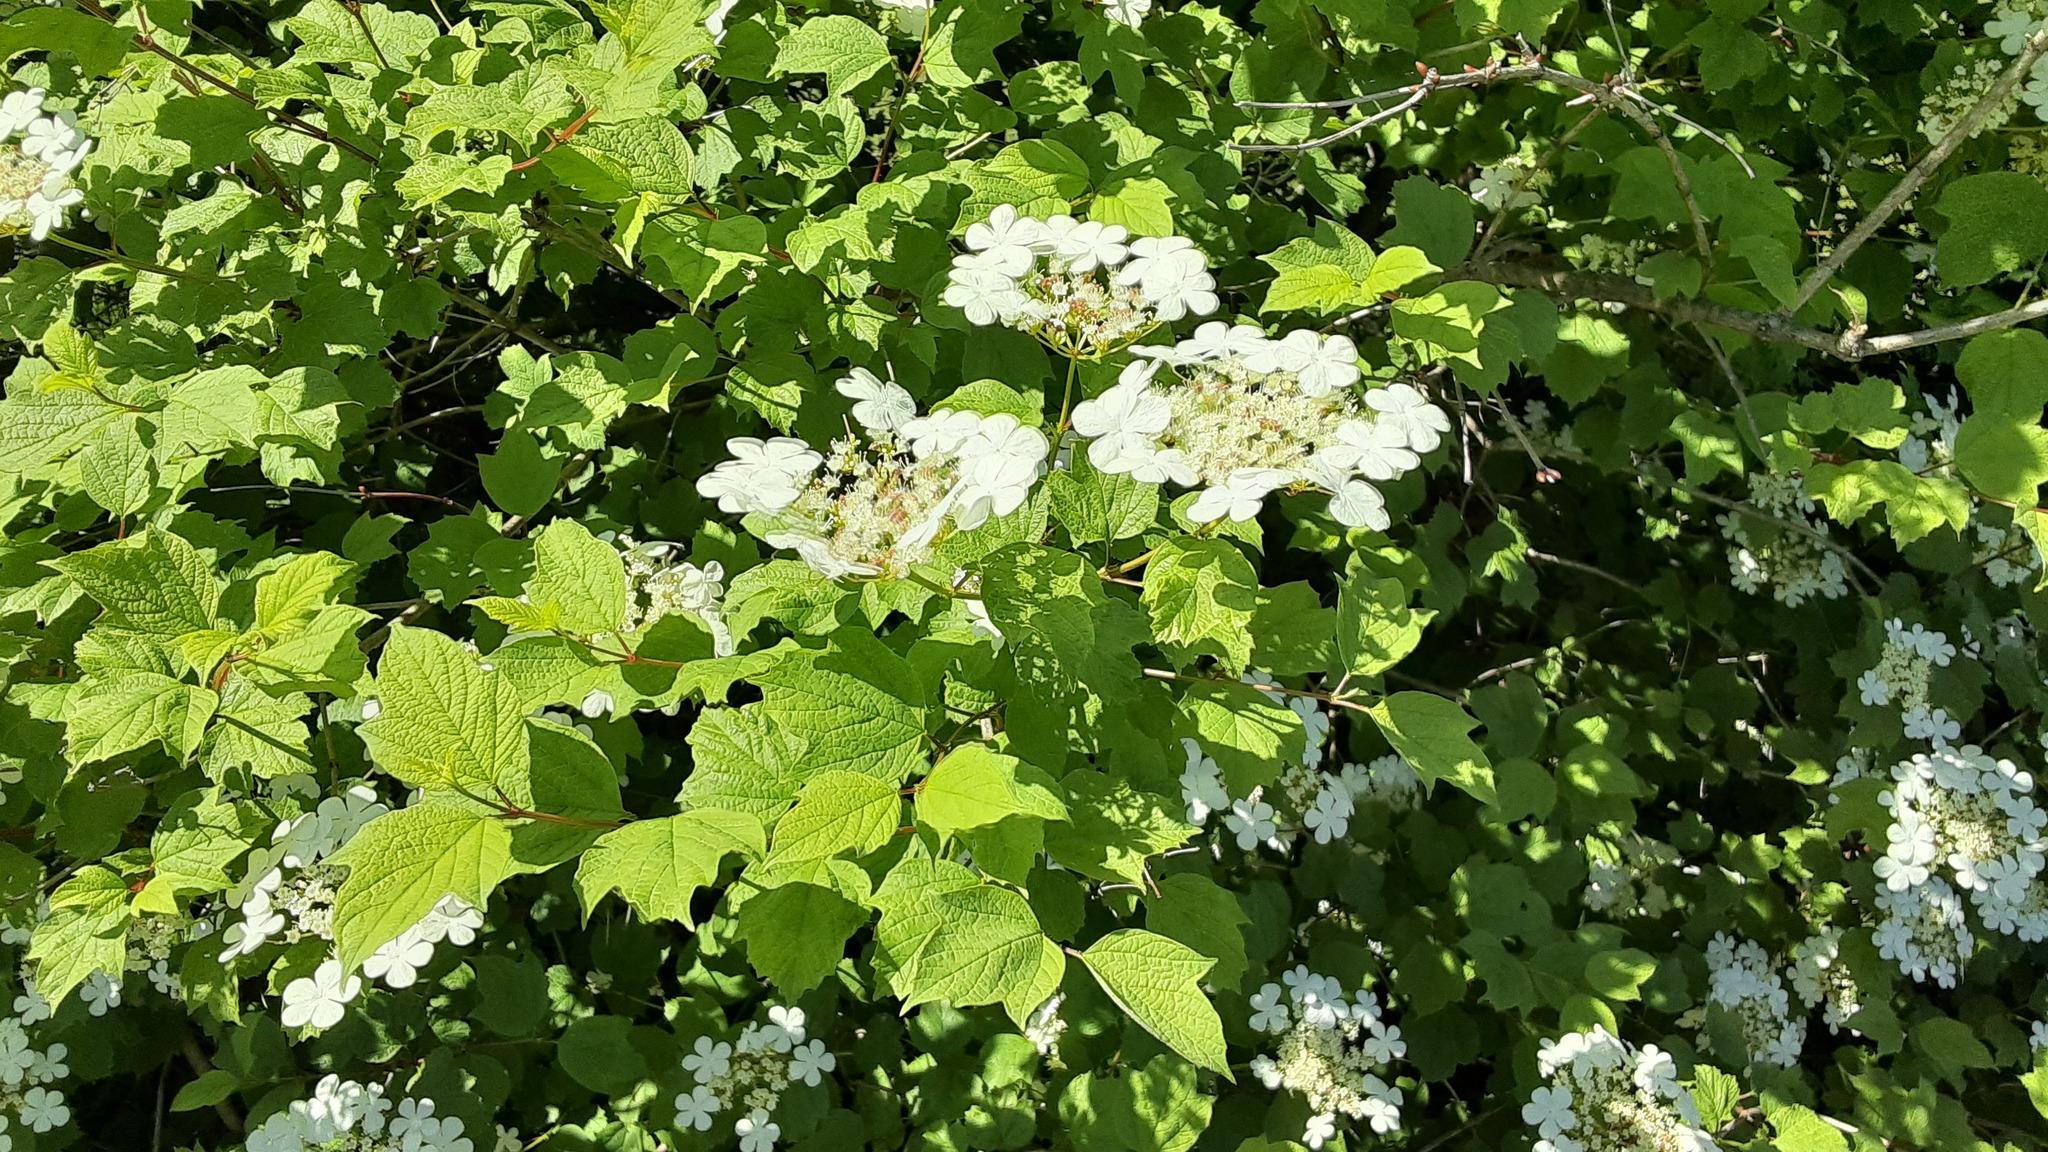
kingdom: Plantae
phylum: Tracheophyta
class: Magnoliopsida
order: Dipsacales
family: Viburnaceae
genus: Viburnum
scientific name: Viburnum opulus
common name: Guelder-rose
